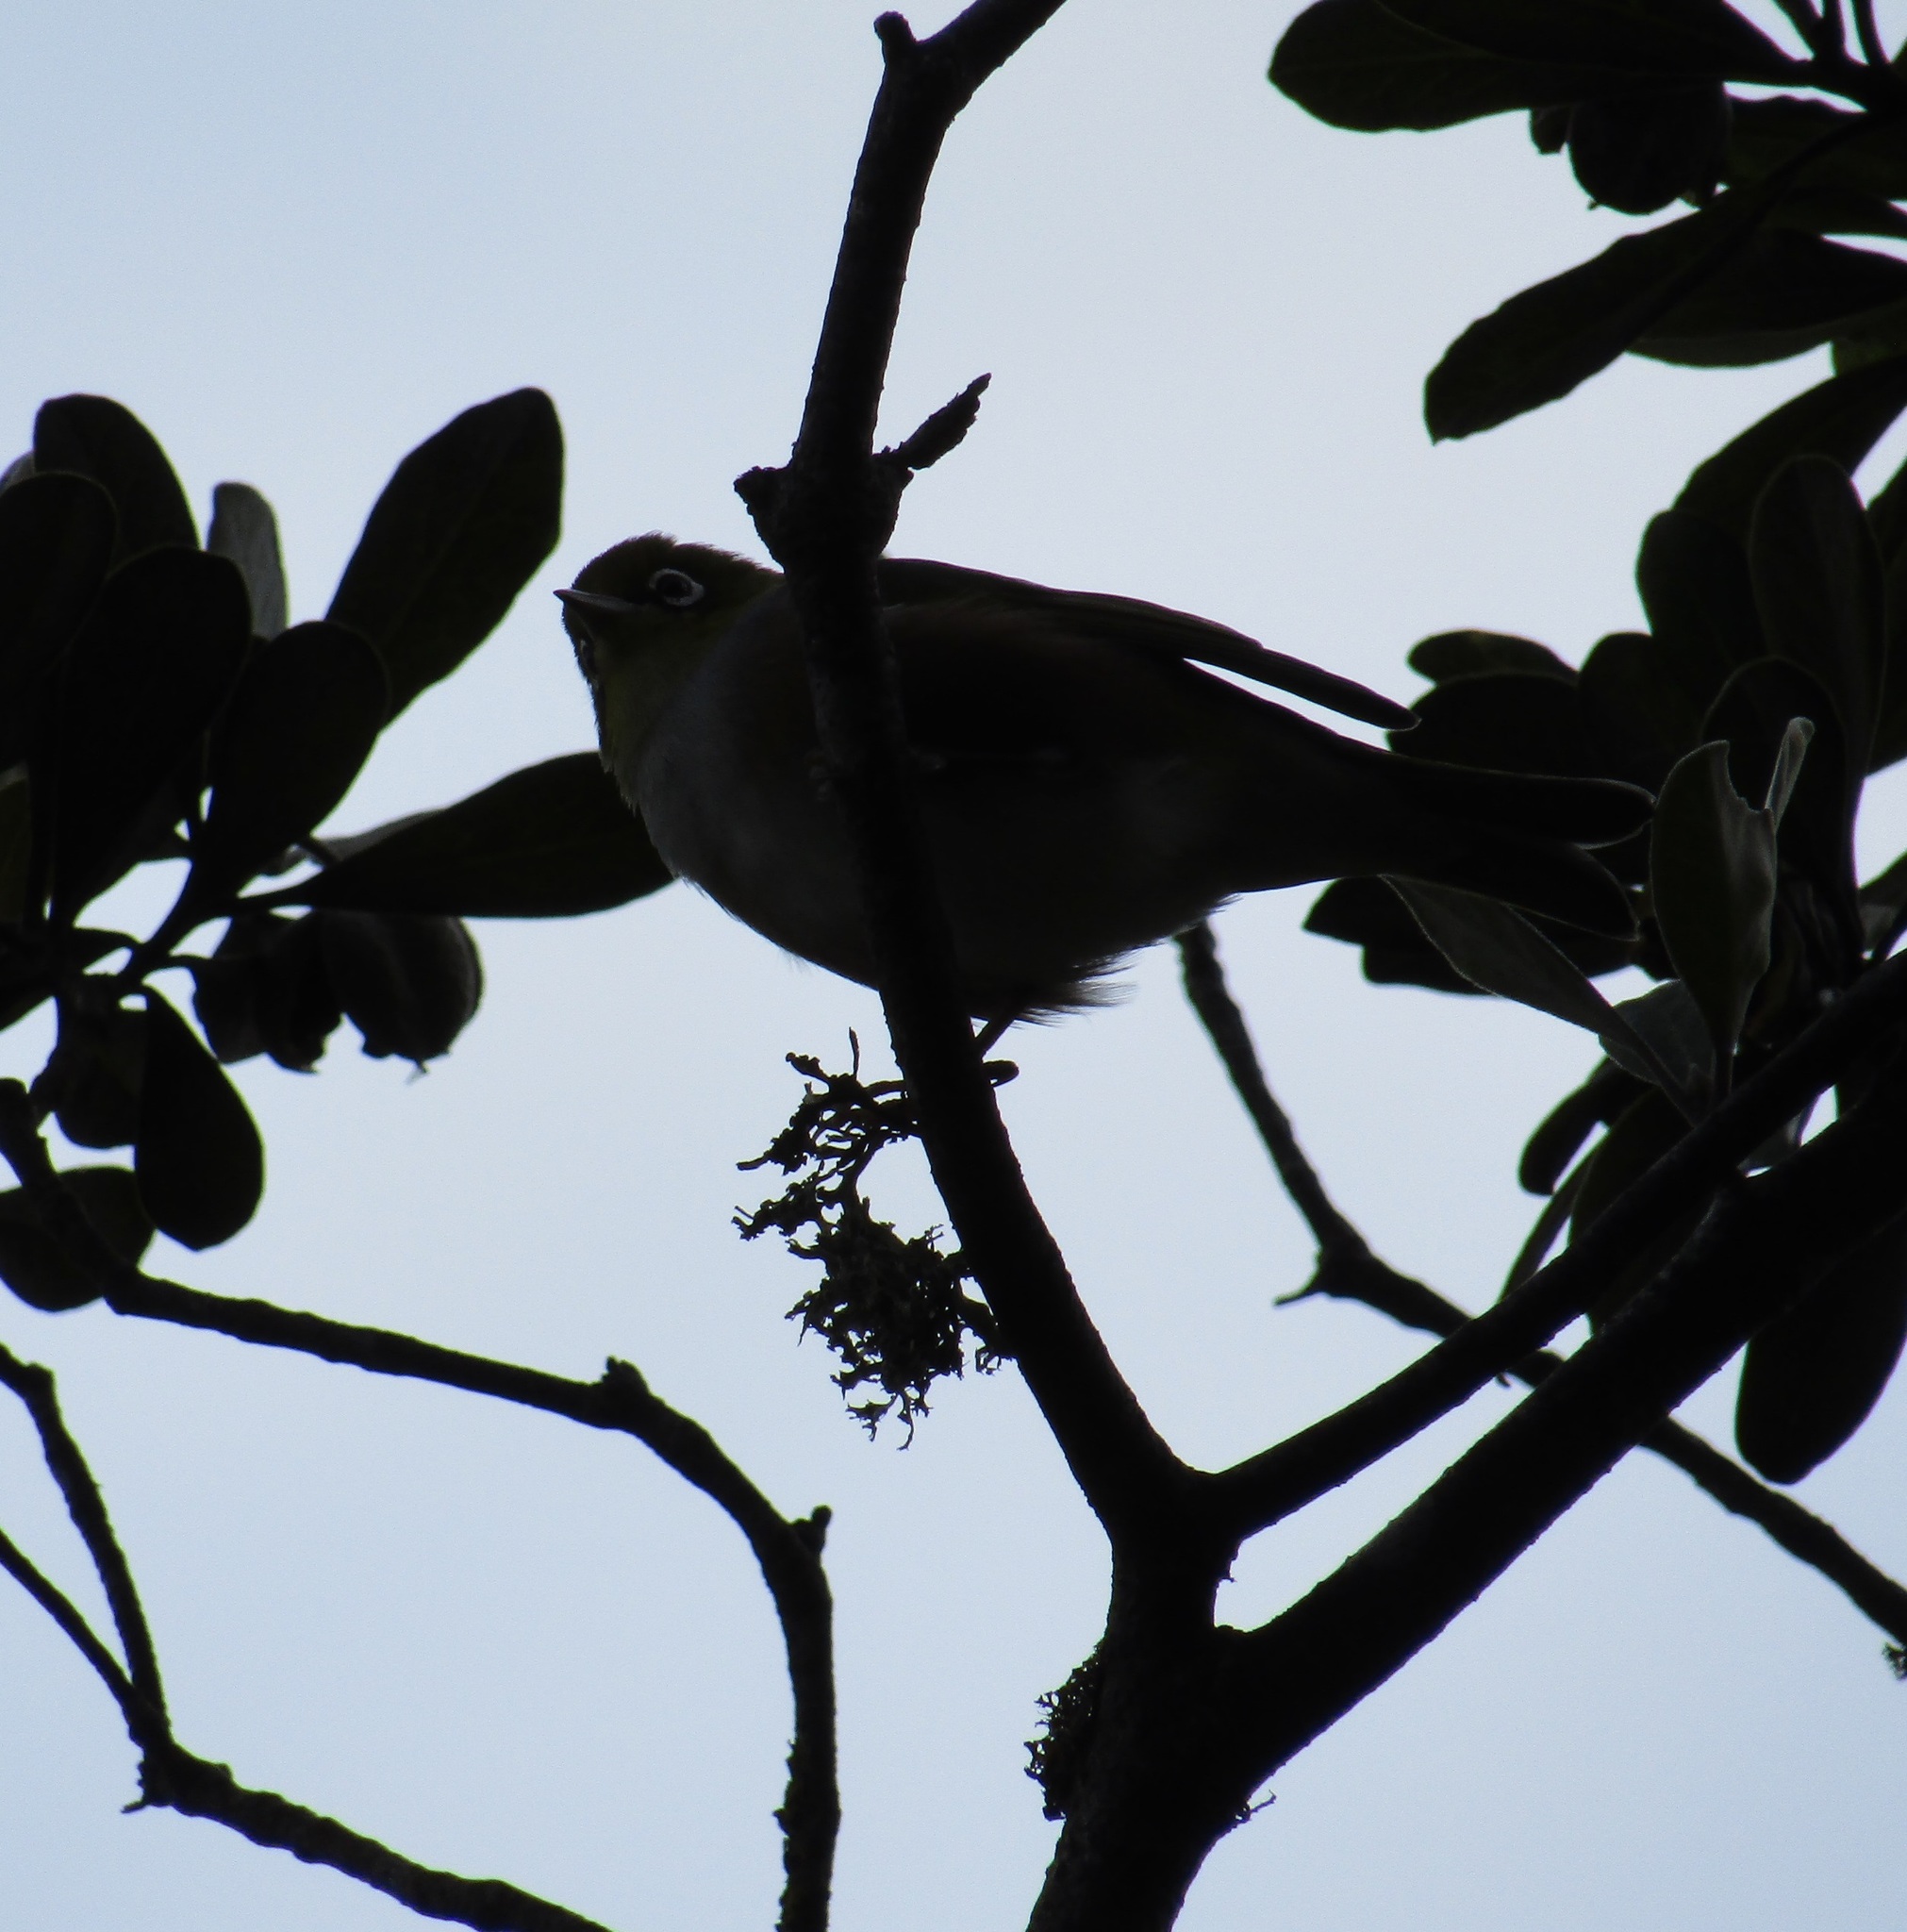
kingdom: Animalia
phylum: Chordata
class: Aves
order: Passeriformes
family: Zosteropidae
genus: Zosterops
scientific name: Zosterops lateralis
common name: Silvereye
